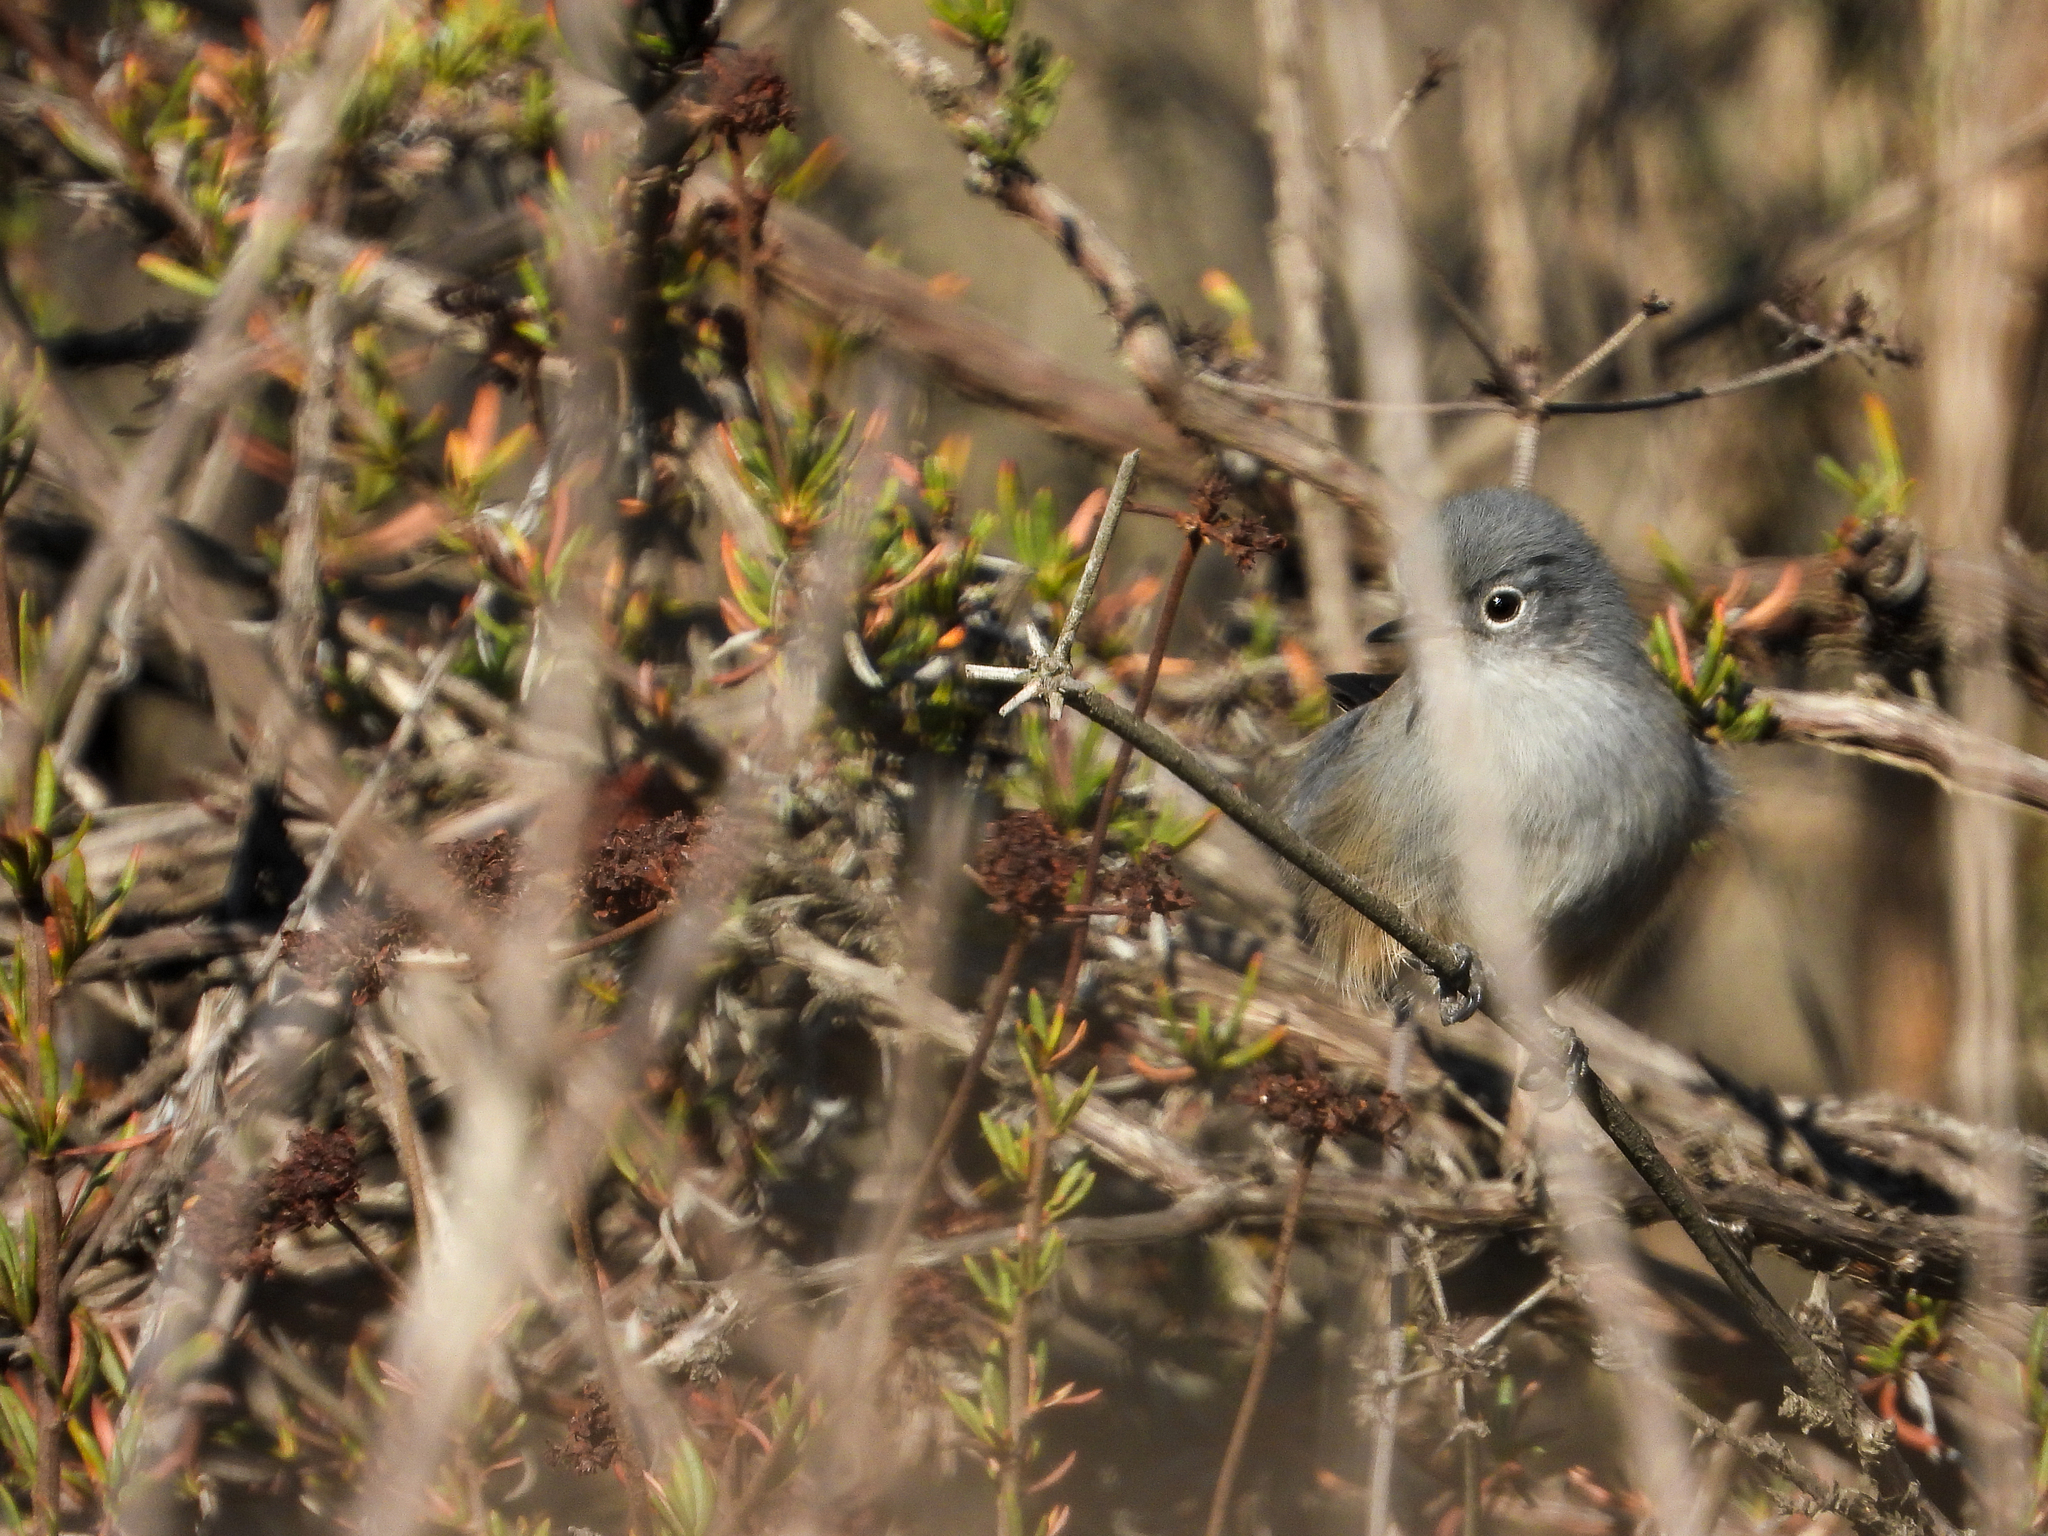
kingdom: Animalia
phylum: Chordata
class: Aves
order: Passeriformes
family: Polioptilidae
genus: Polioptila
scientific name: Polioptila californica
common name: California gnatcatcher
